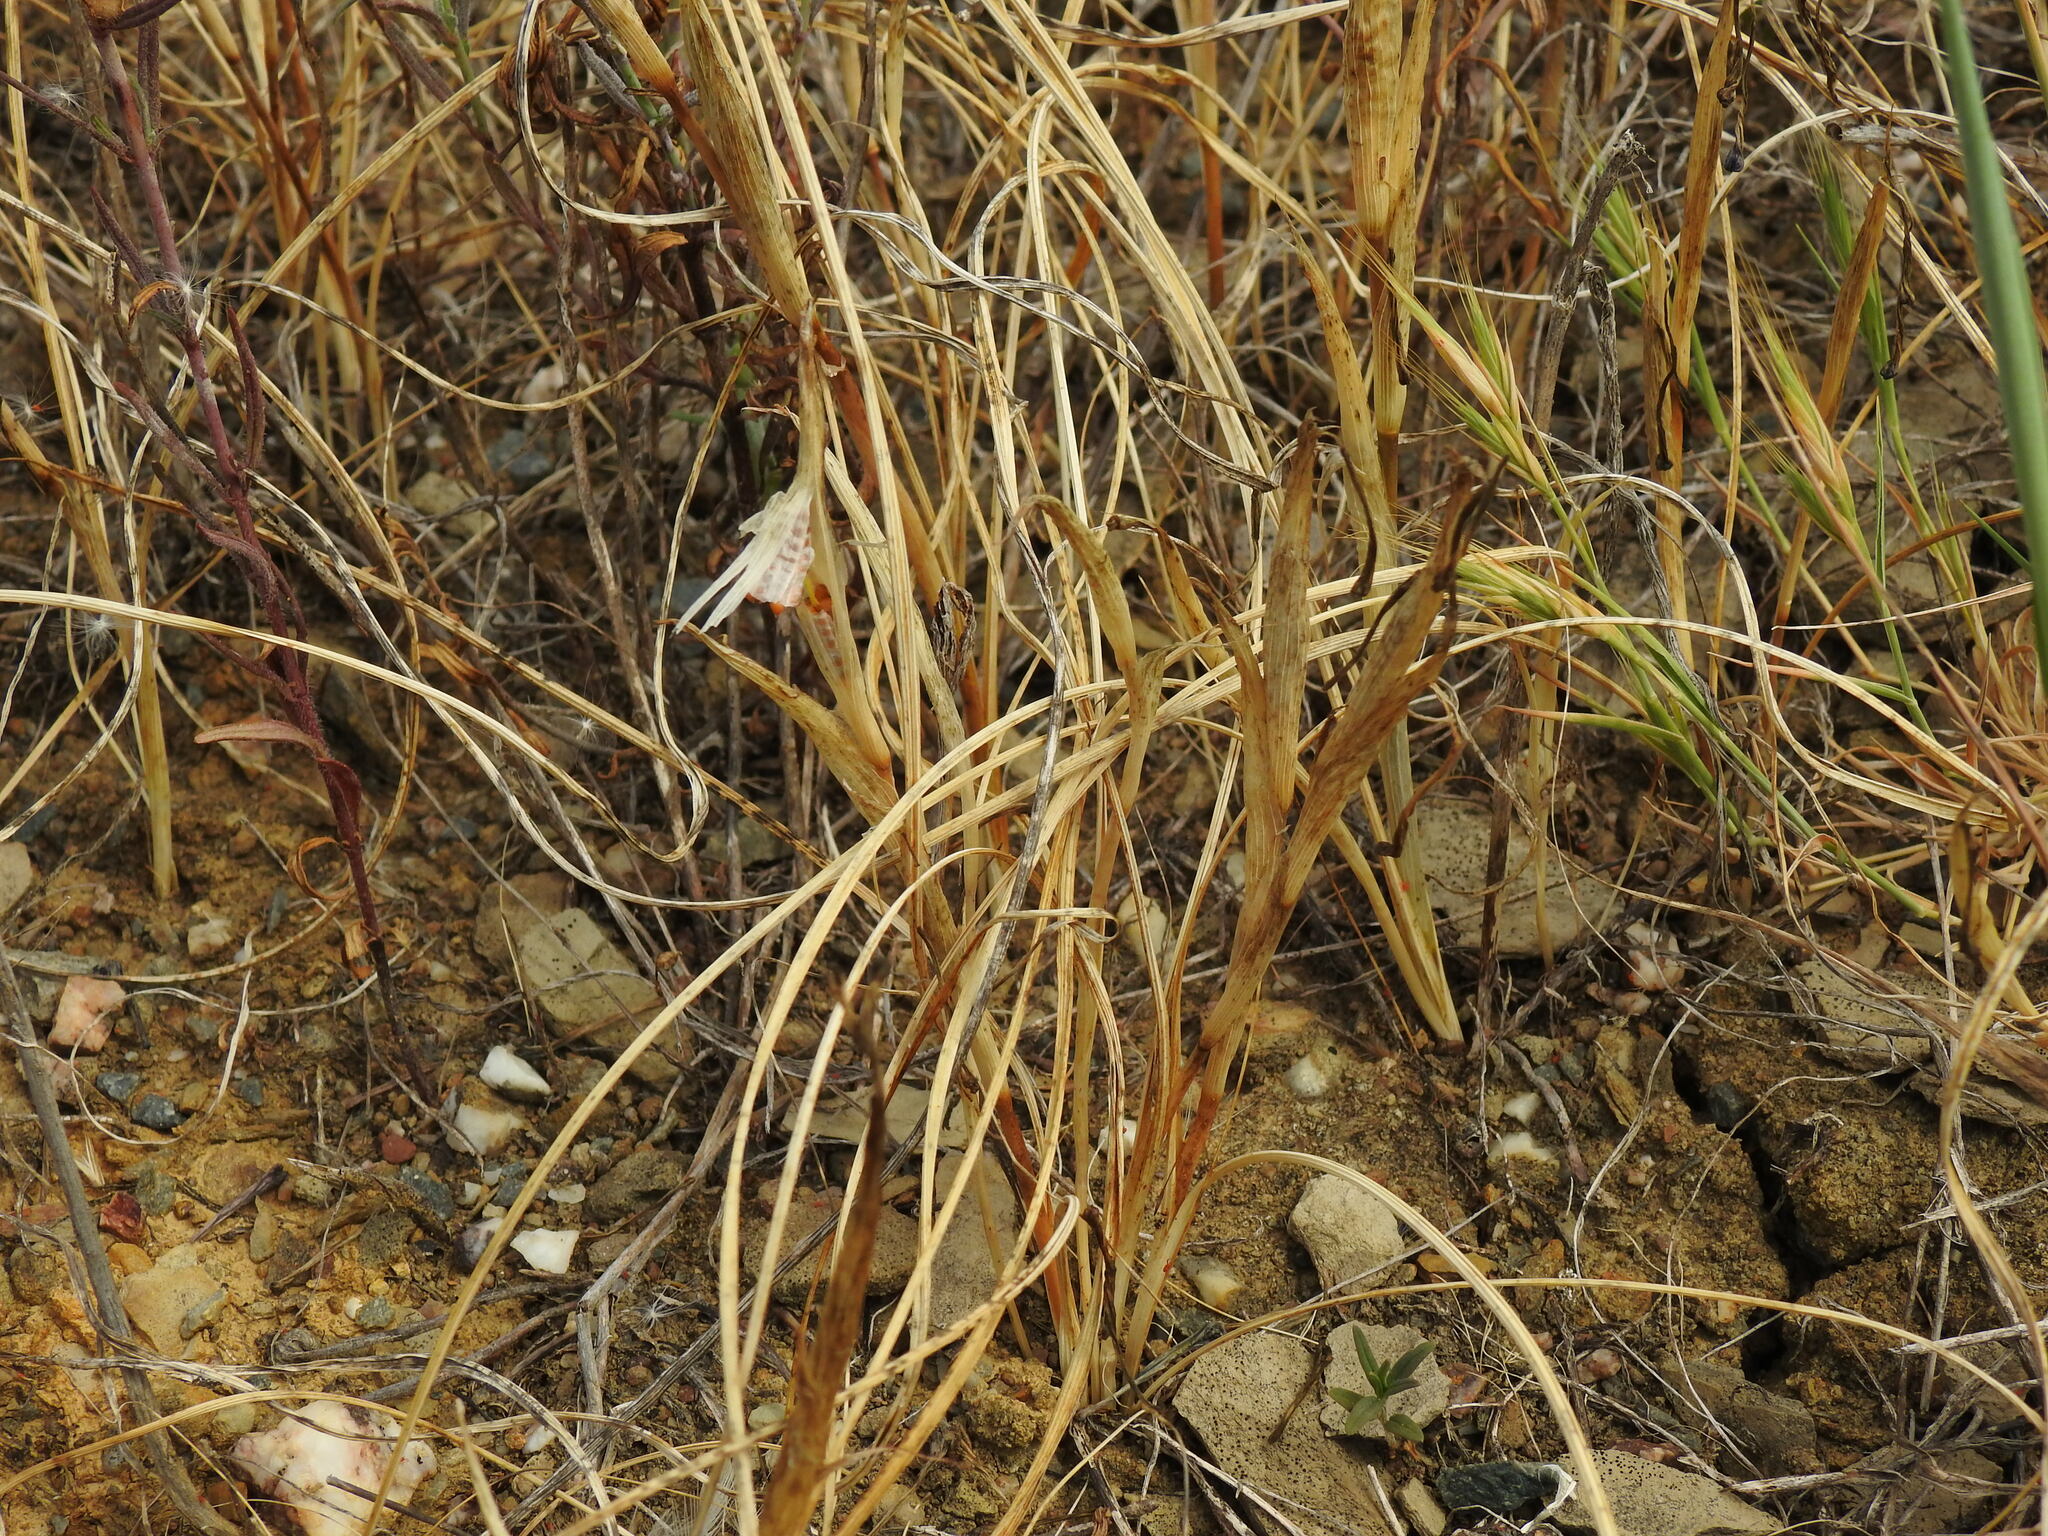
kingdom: Plantae
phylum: Tracheophyta
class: Liliopsida
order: Asparagales
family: Iridaceae
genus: Moraea
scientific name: Moraea sisyrinchium
